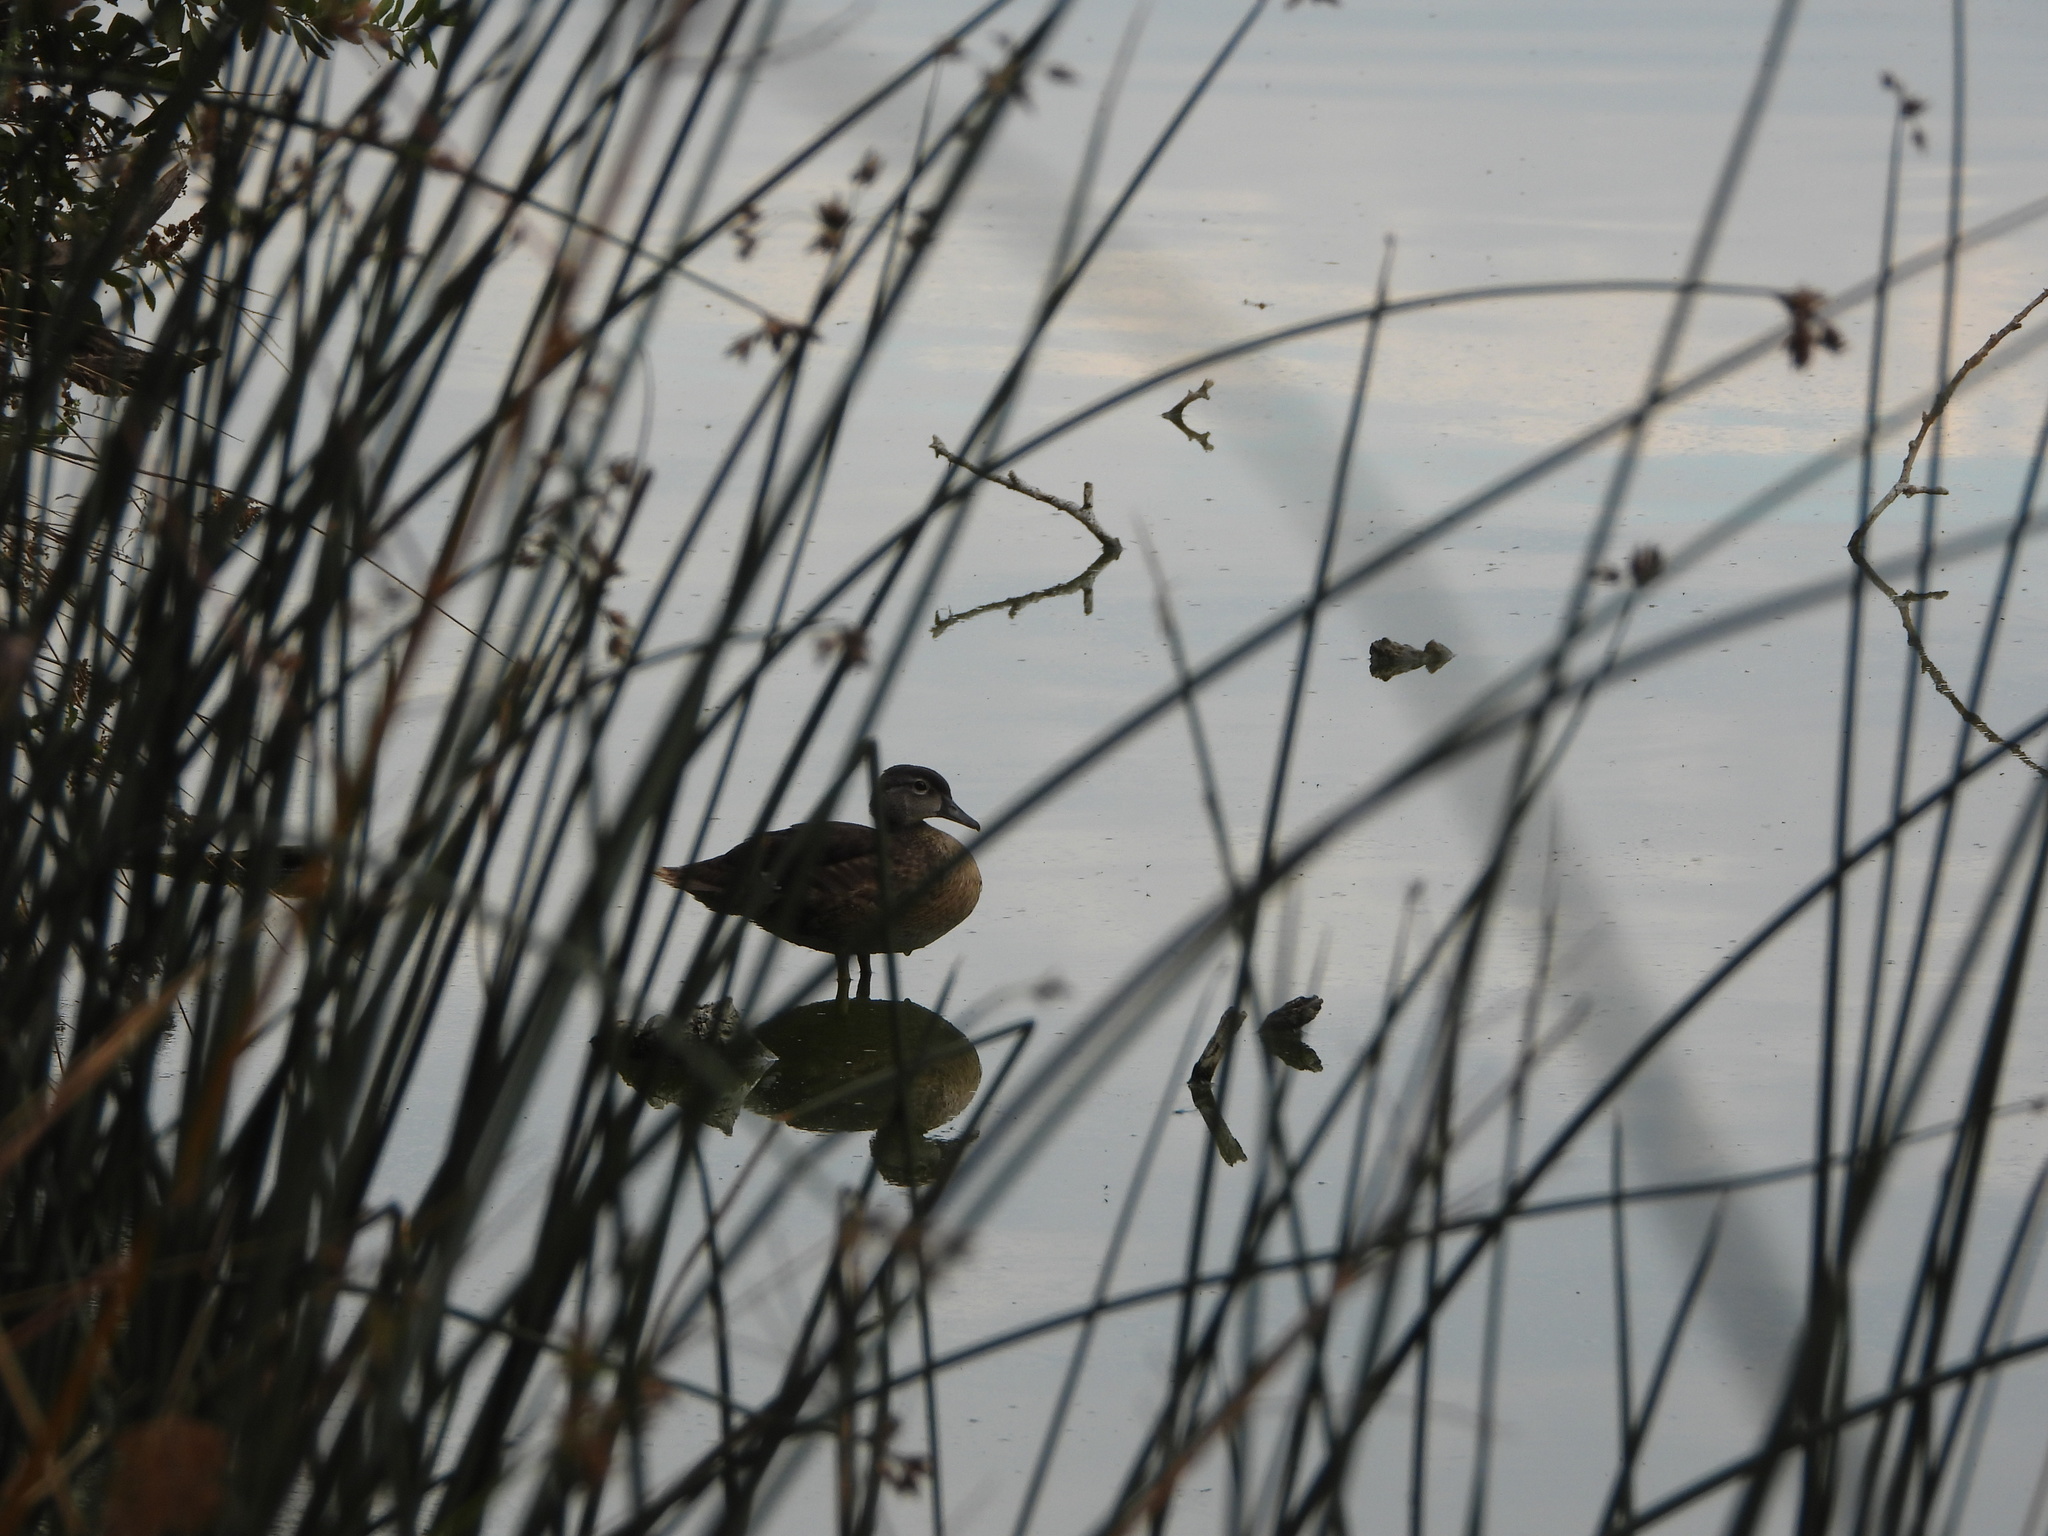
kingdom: Animalia
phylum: Chordata
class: Aves
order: Anseriformes
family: Anatidae
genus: Aix
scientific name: Aix sponsa
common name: Wood duck
